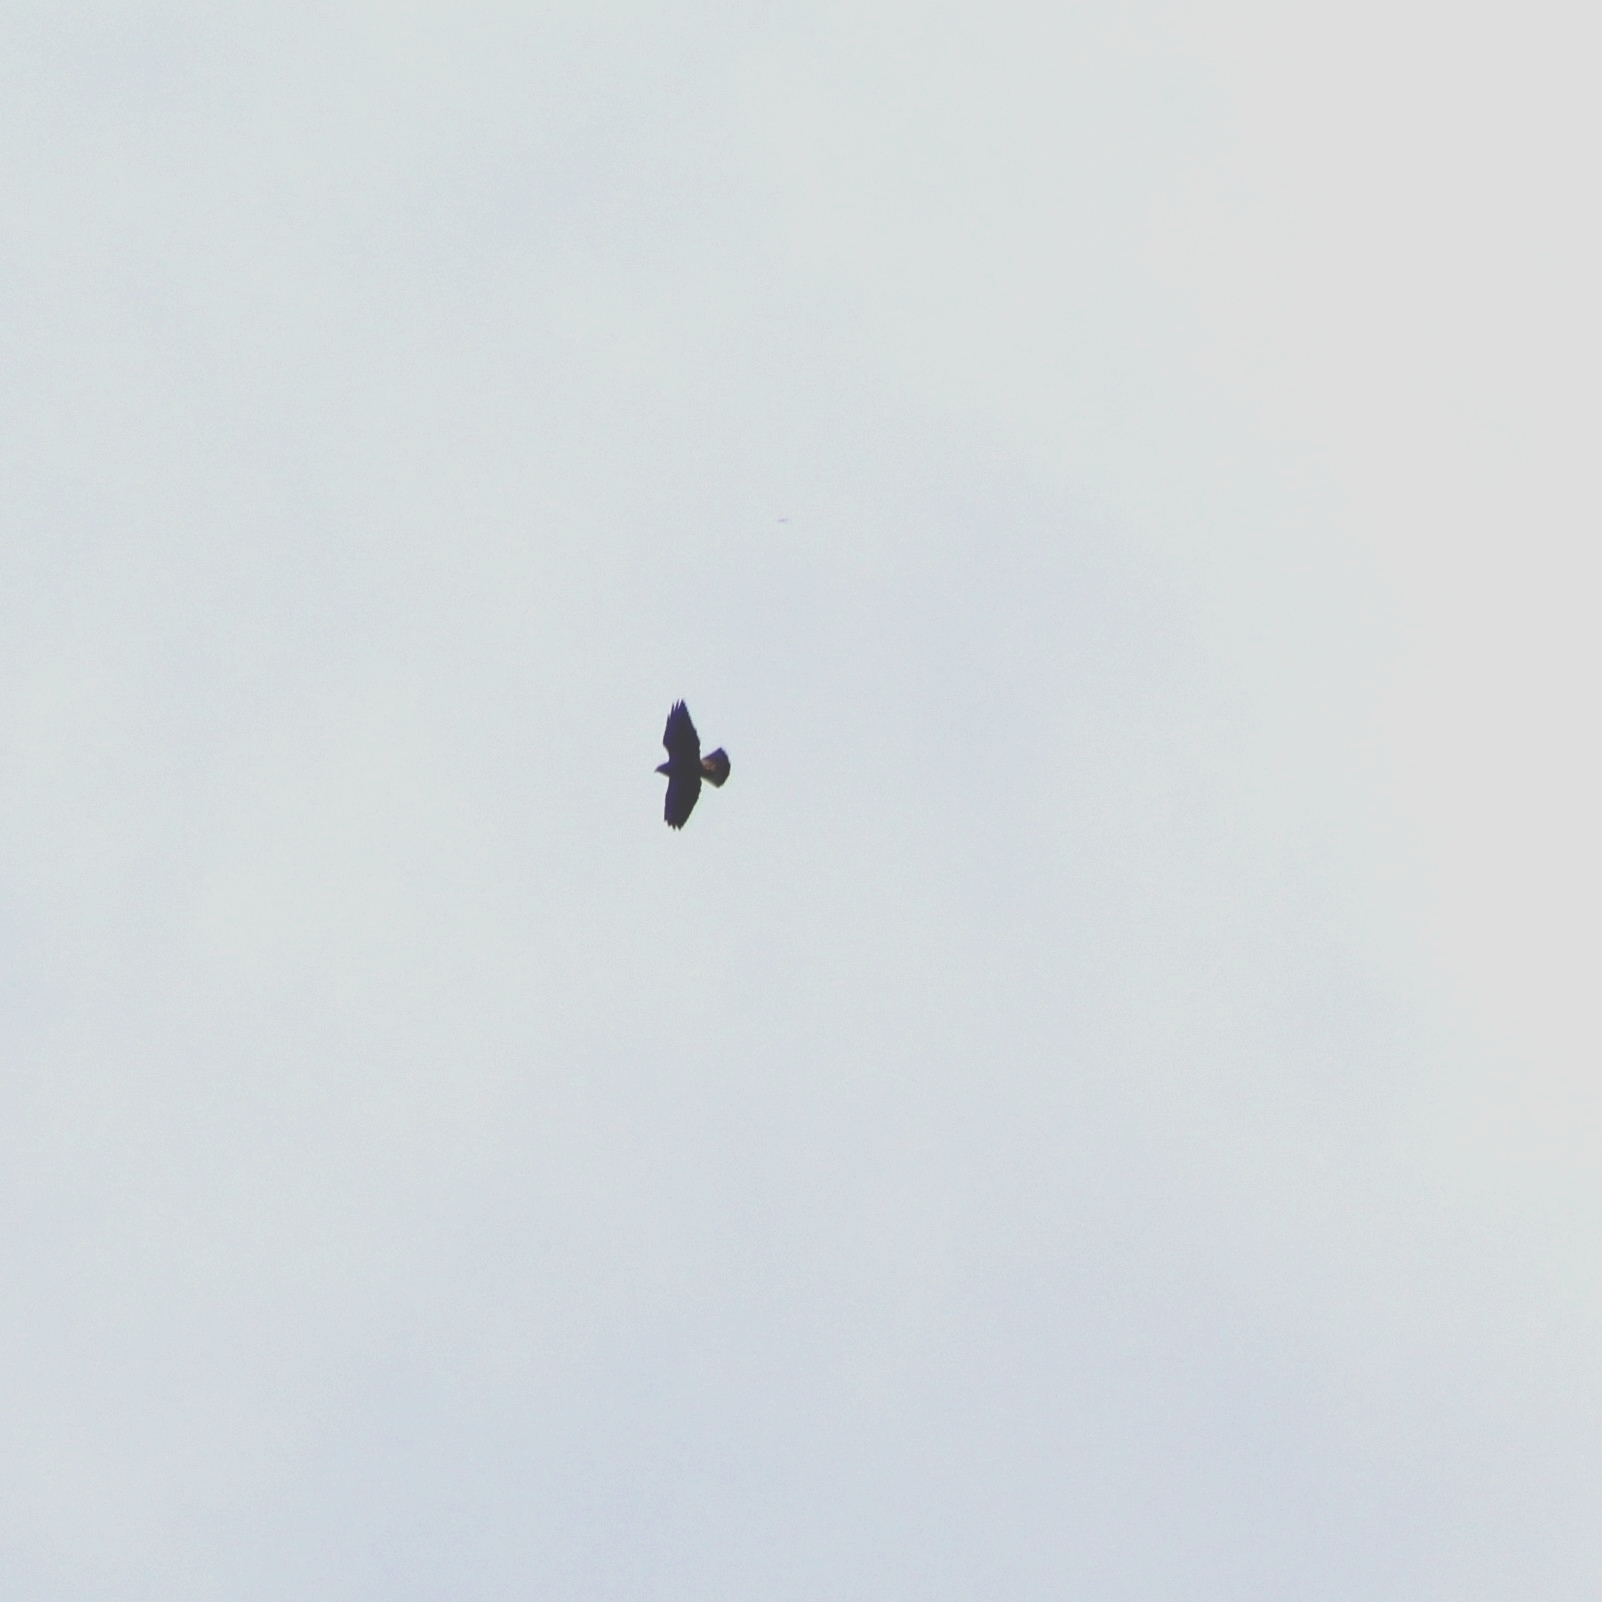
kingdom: Animalia
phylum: Chordata
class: Aves
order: Accipitriformes
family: Accipitridae
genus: Parabuteo
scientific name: Parabuteo unicinctus
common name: Harris's hawk
